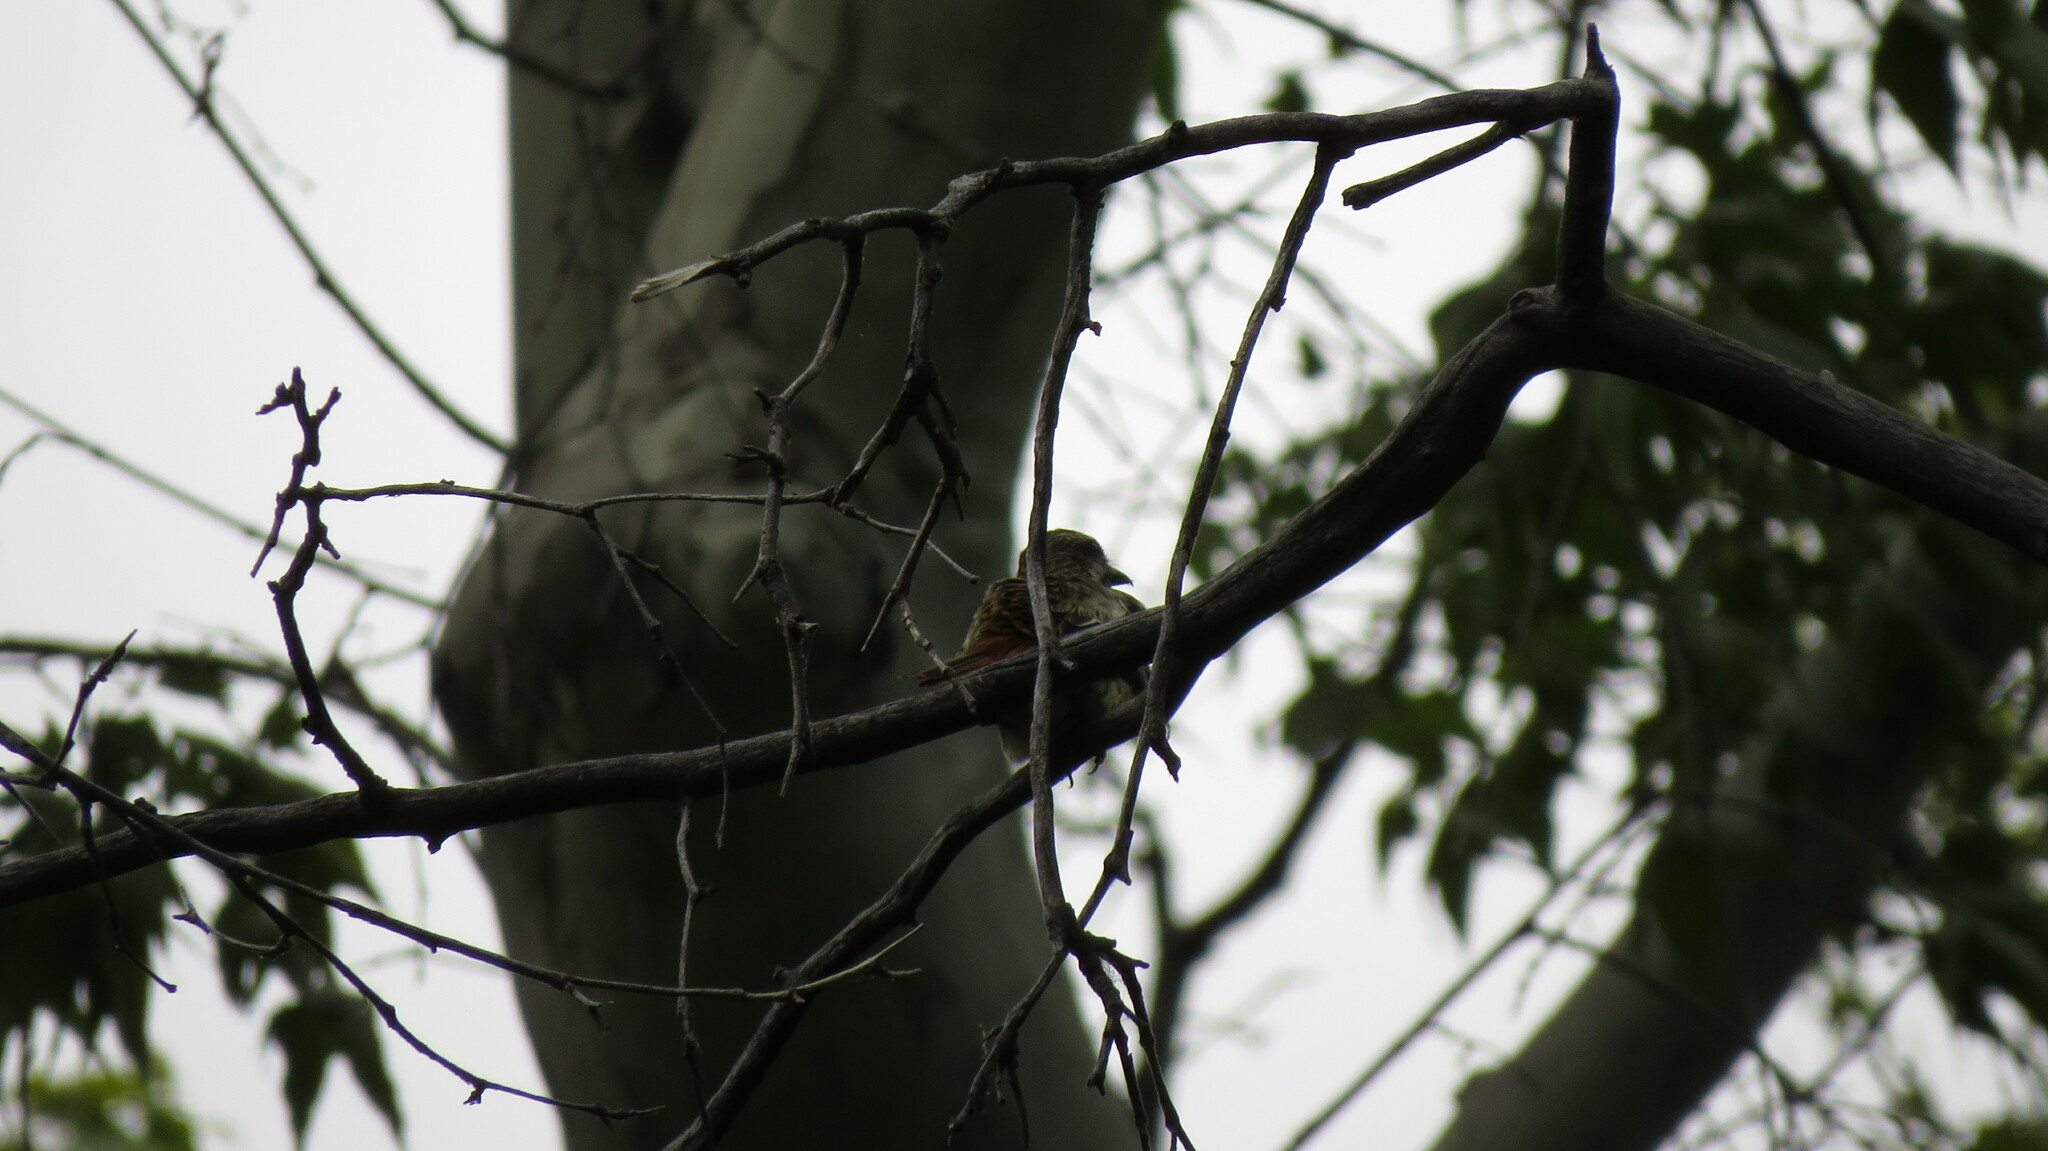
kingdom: Animalia
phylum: Chordata
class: Aves
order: Passeriformes
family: Tyrannidae
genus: Myiodynastes
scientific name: Myiodynastes luteiventris
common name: Sulphur-bellied flycatcher
